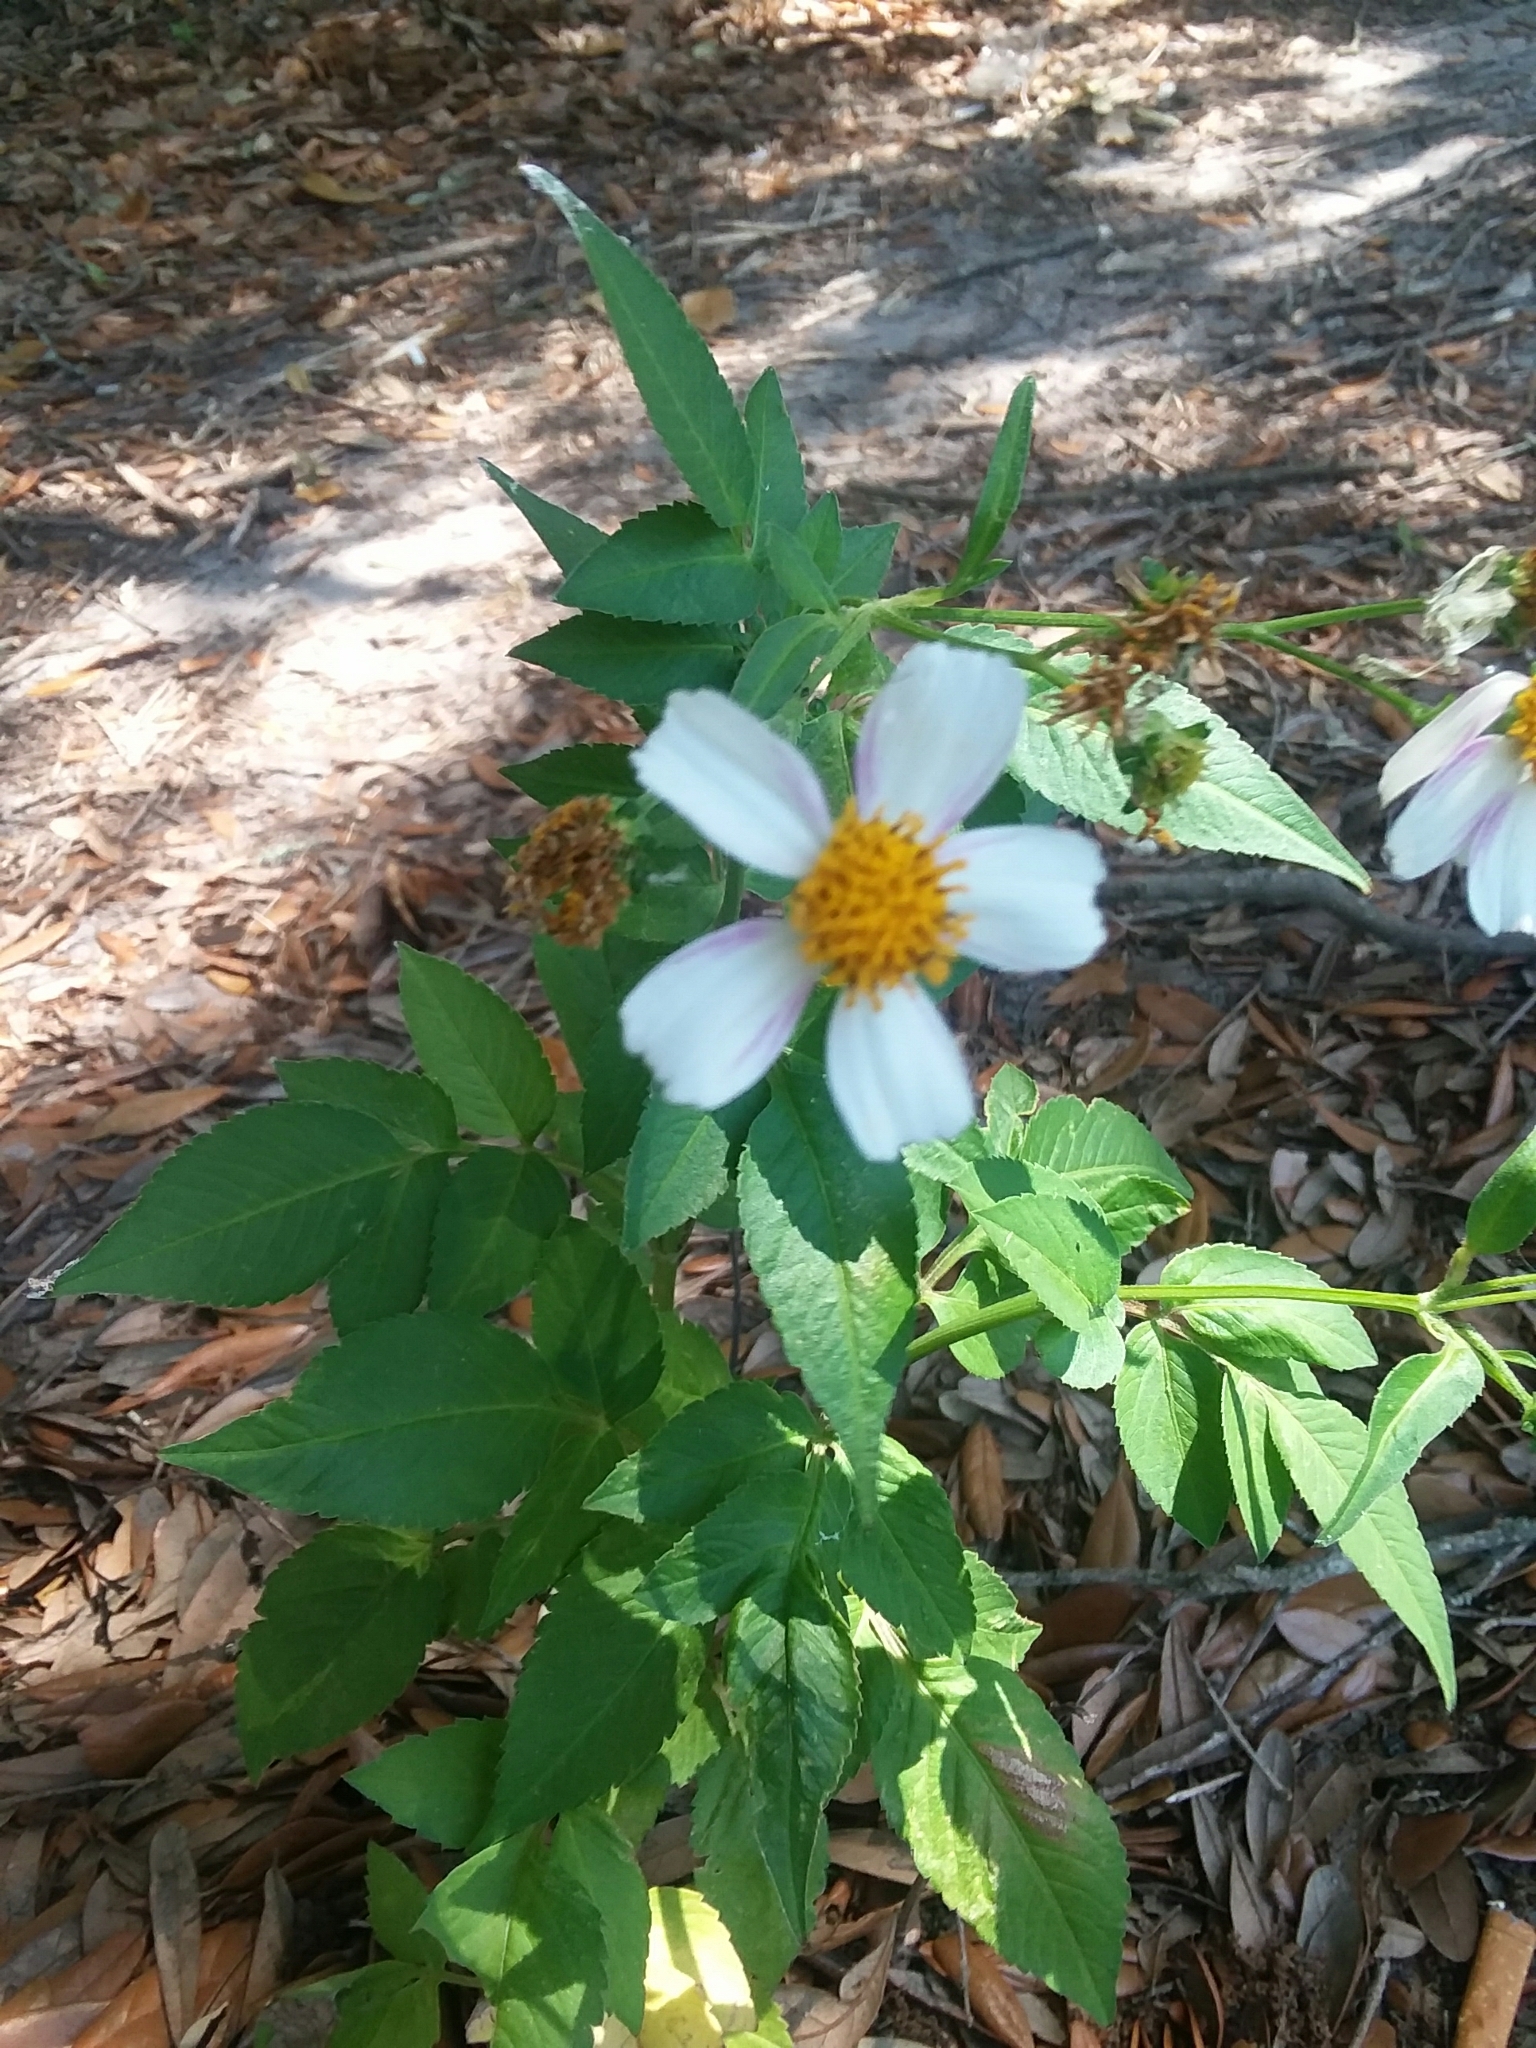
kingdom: Plantae
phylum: Tracheophyta
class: Magnoliopsida
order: Asterales
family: Asteraceae
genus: Bidens
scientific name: Bidens alba
